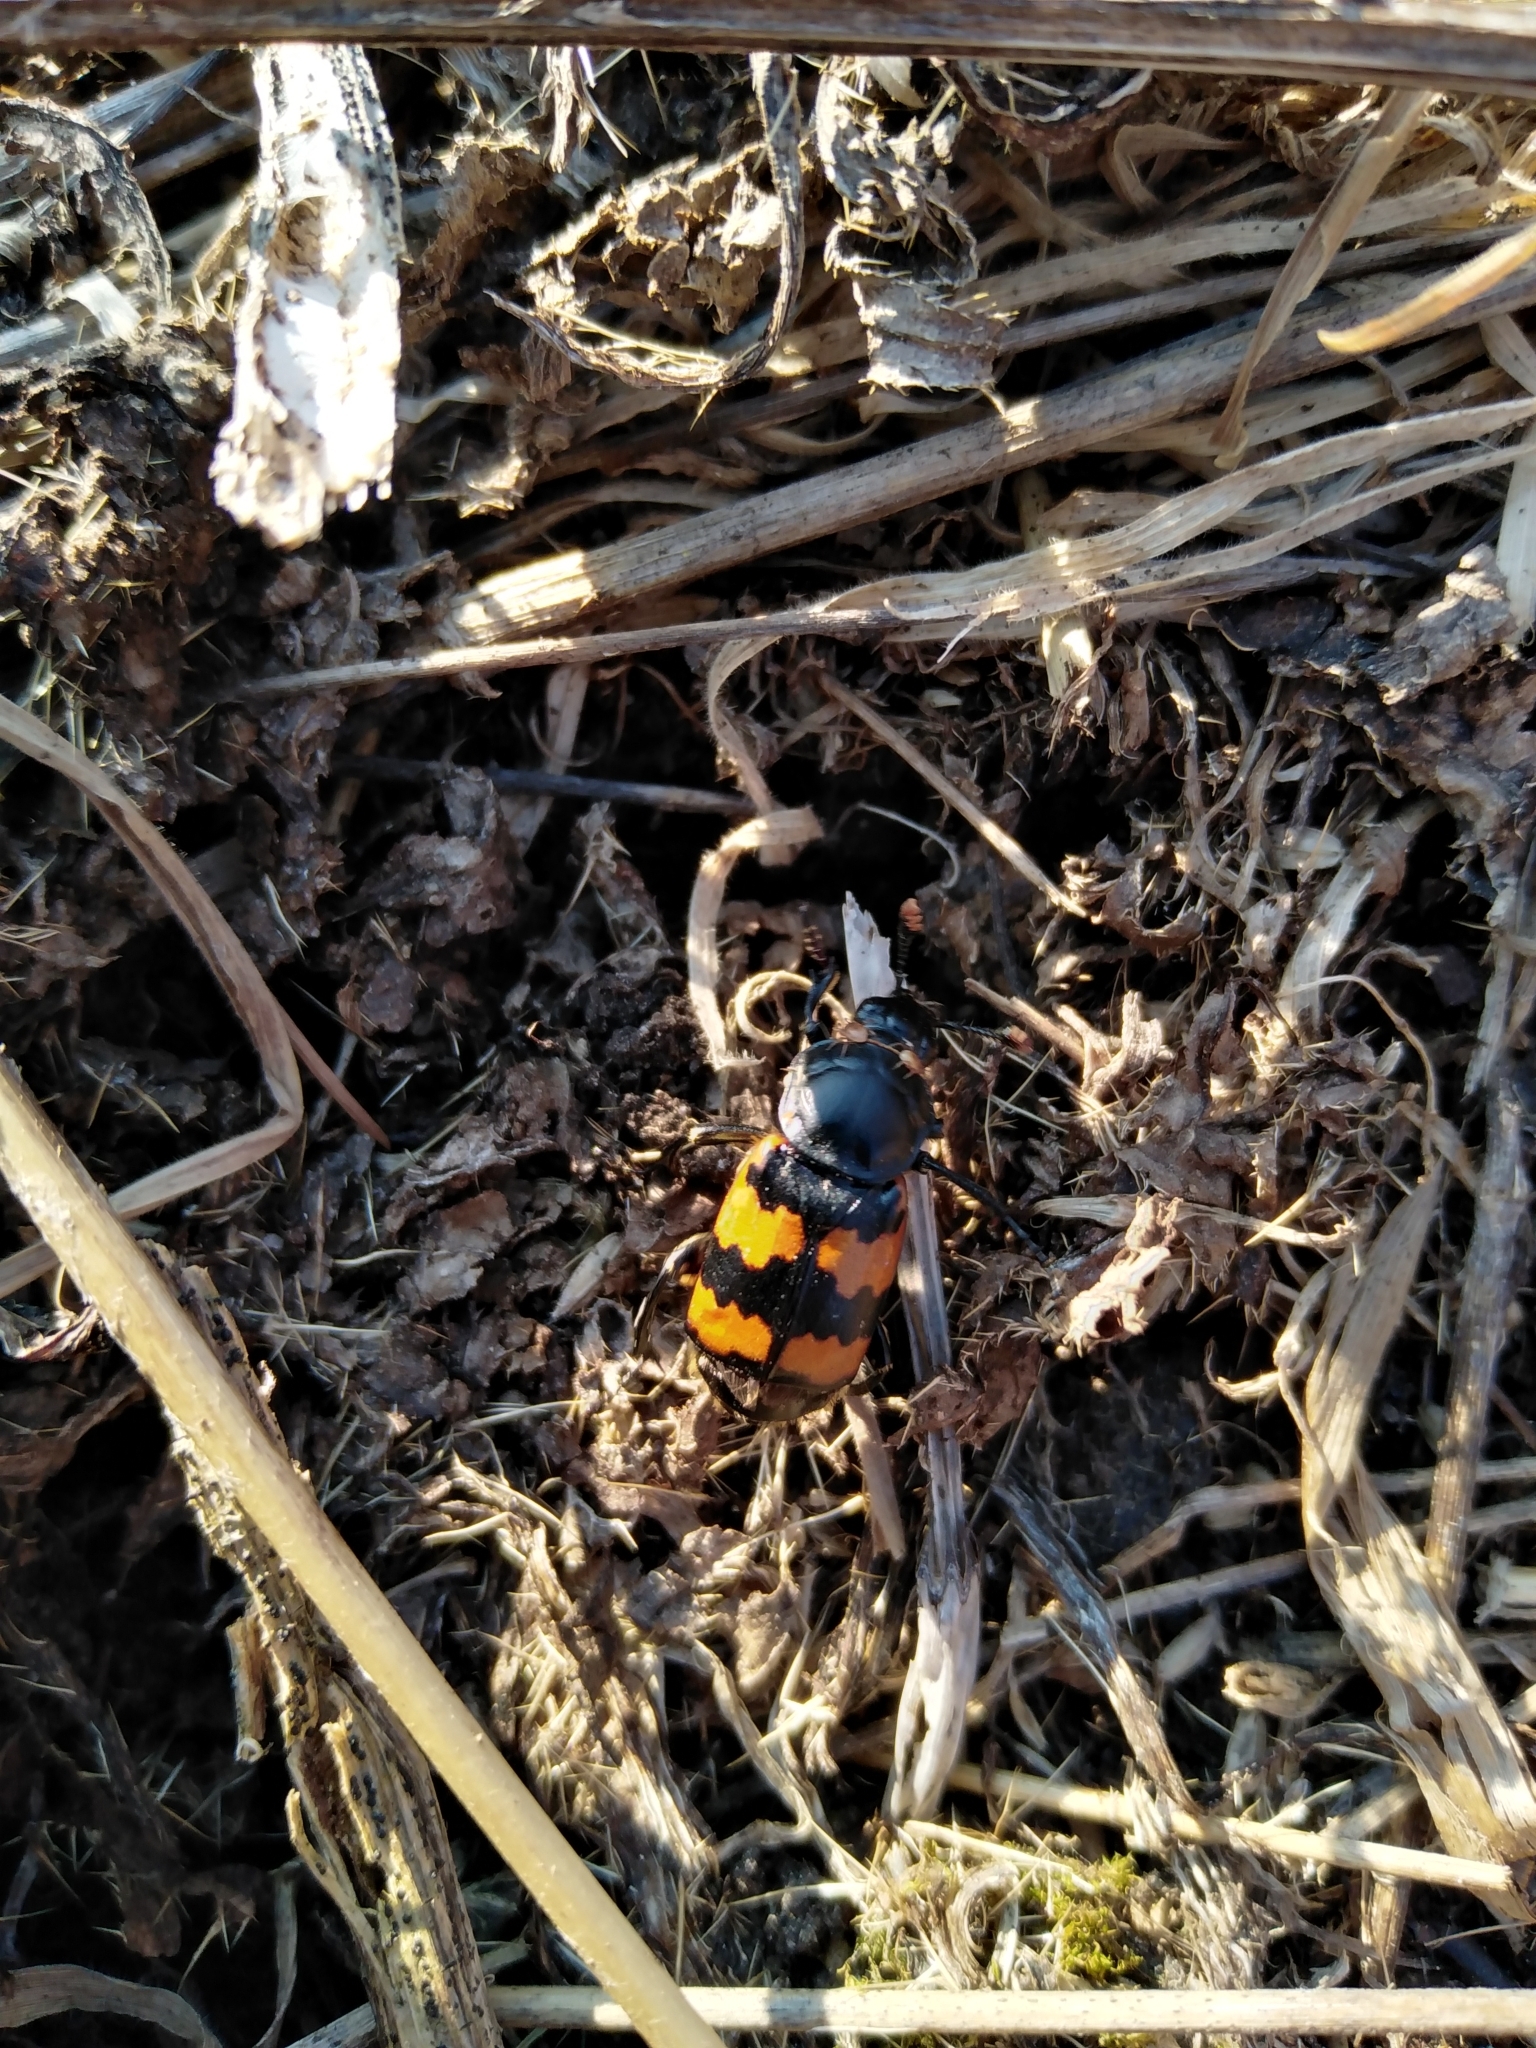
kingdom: Animalia
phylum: Arthropoda
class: Insecta
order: Coleoptera
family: Staphylinidae
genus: Nicrophorus
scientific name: Nicrophorus vespillo
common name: Common burying beetle
